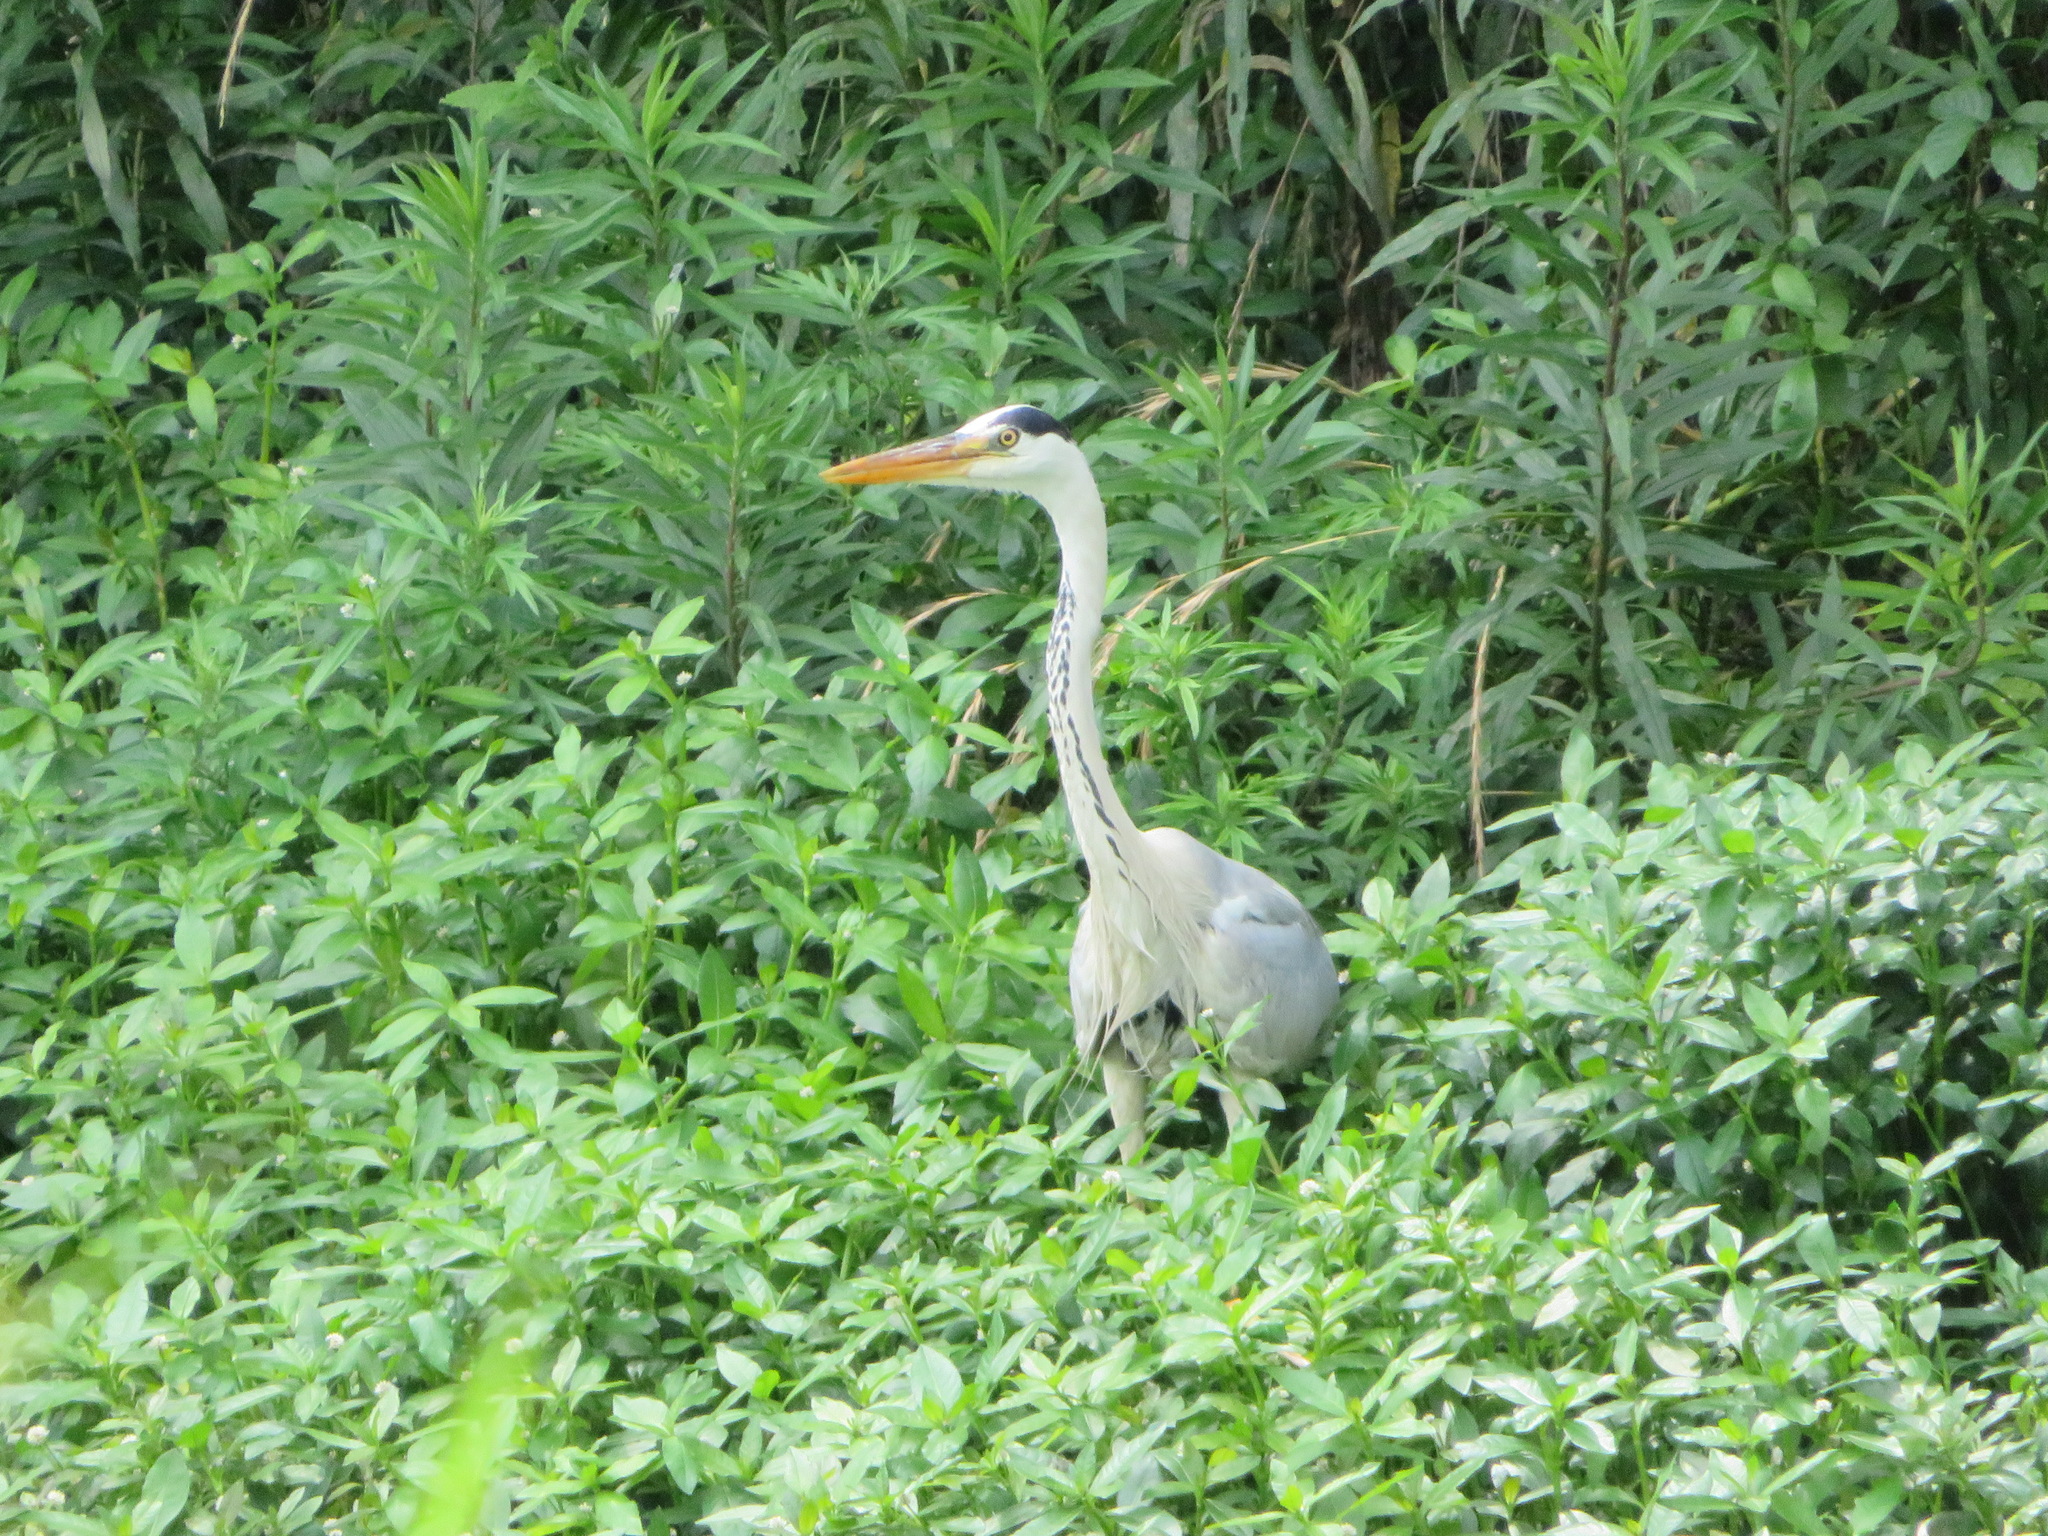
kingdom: Animalia
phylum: Chordata
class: Aves
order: Pelecaniformes
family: Ardeidae
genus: Ardea
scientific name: Ardea cinerea
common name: Grey heron
